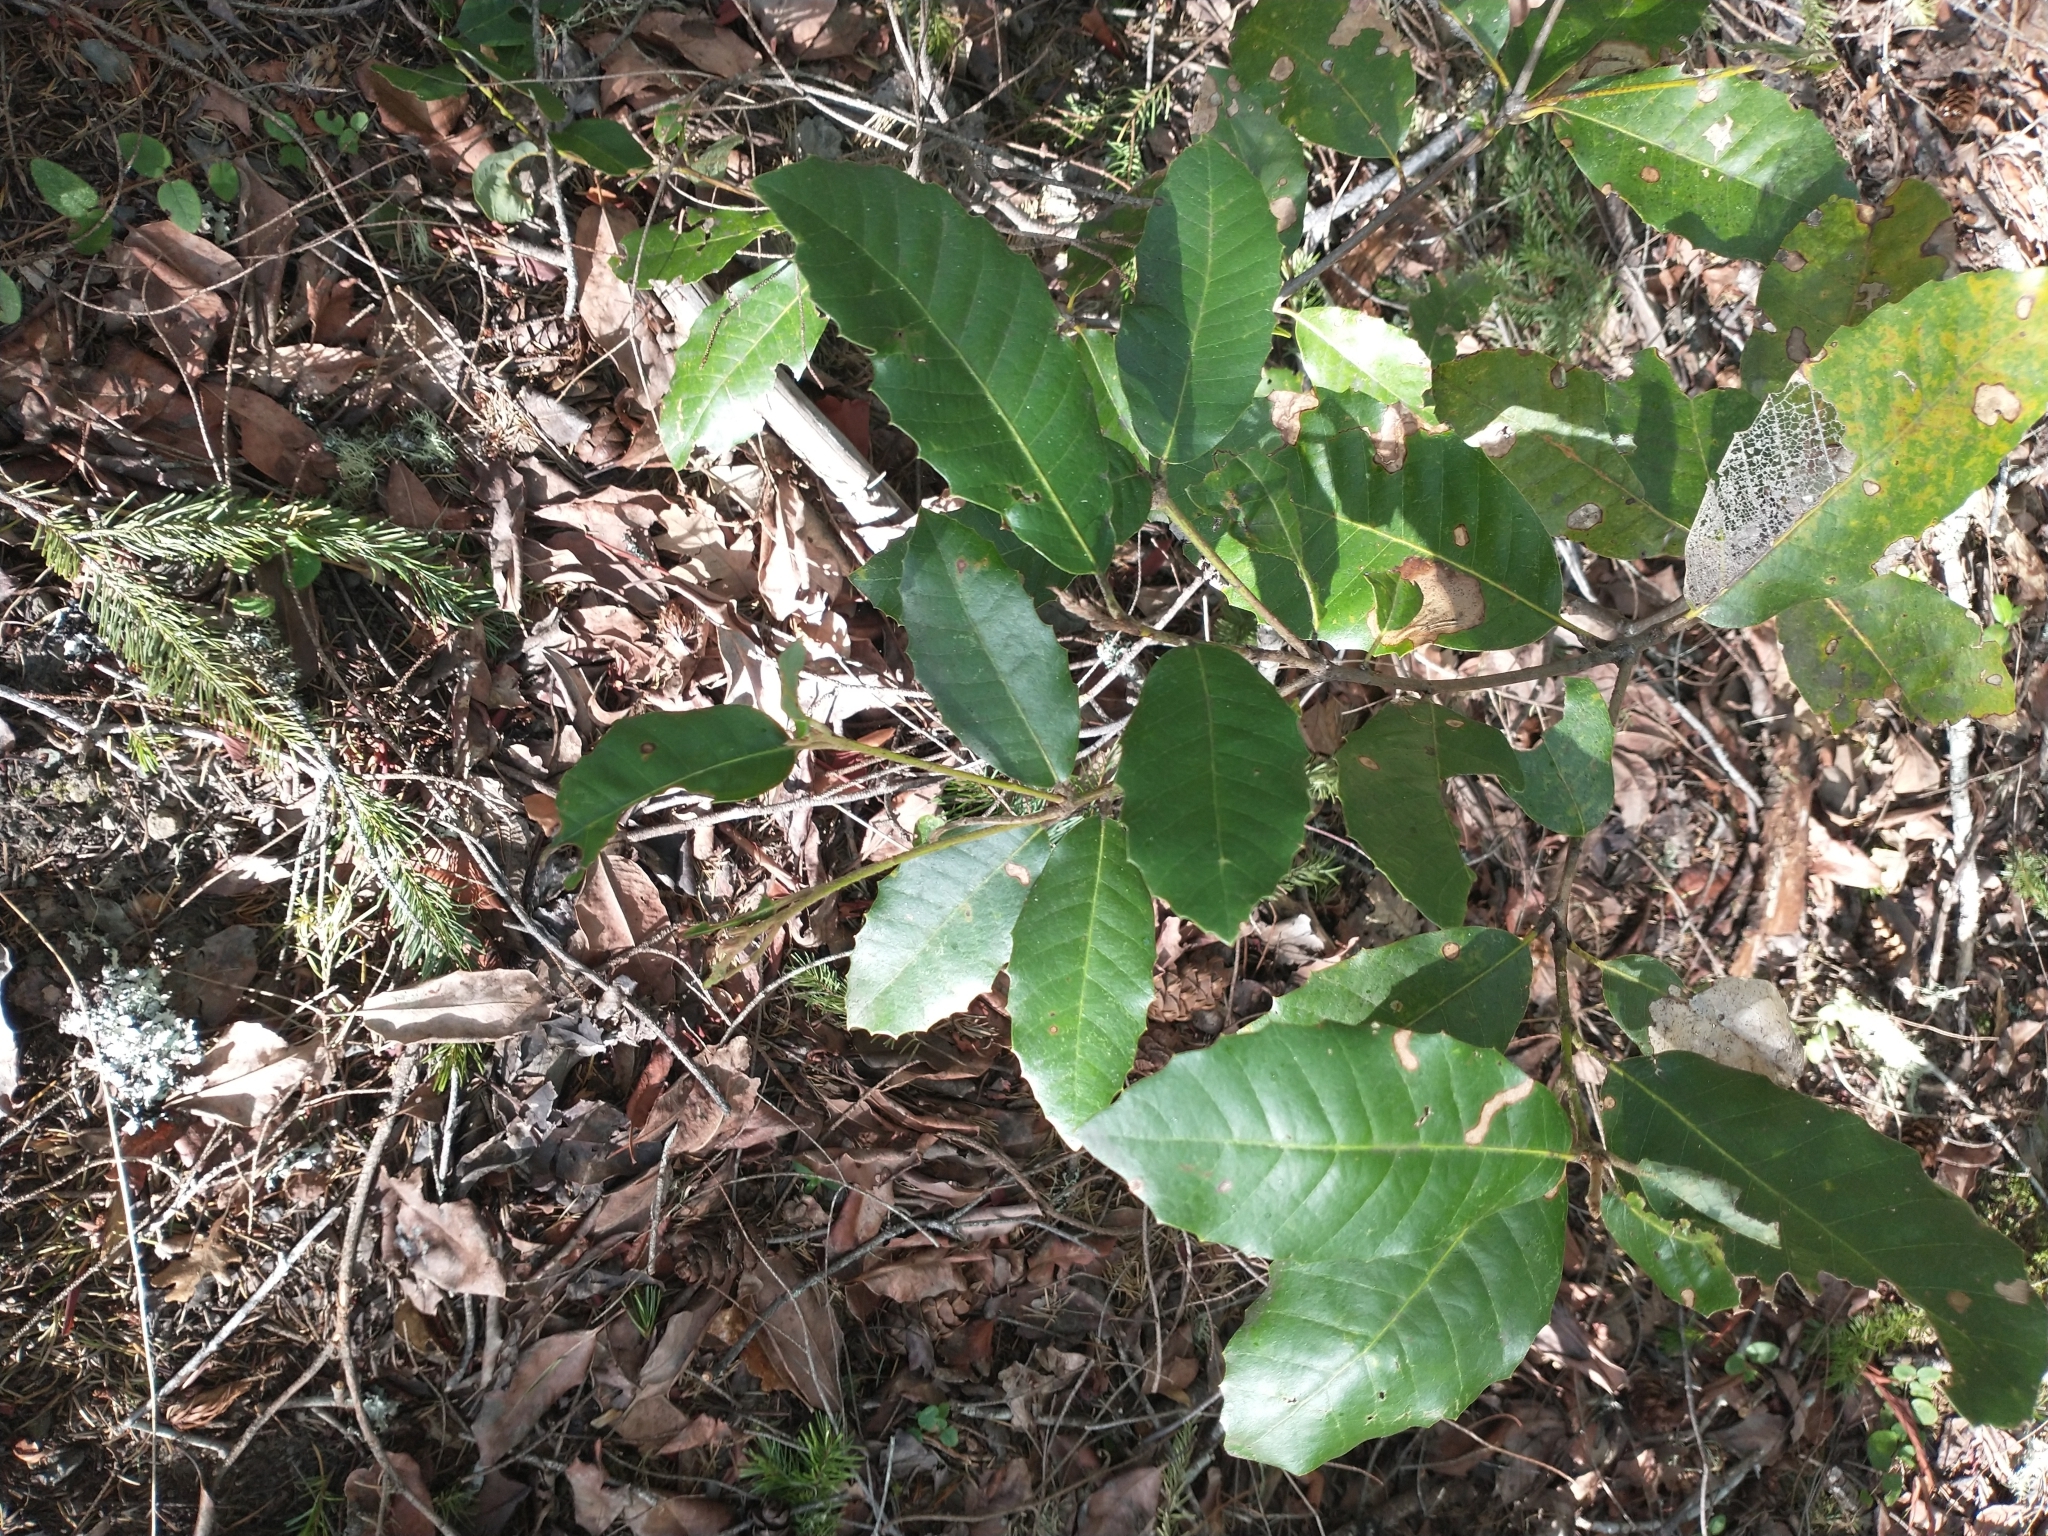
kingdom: Plantae
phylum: Tracheophyta
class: Magnoliopsida
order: Fagales
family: Fagaceae
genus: Notholithocarpus
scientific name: Notholithocarpus densiflorus
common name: Tan bark oak
